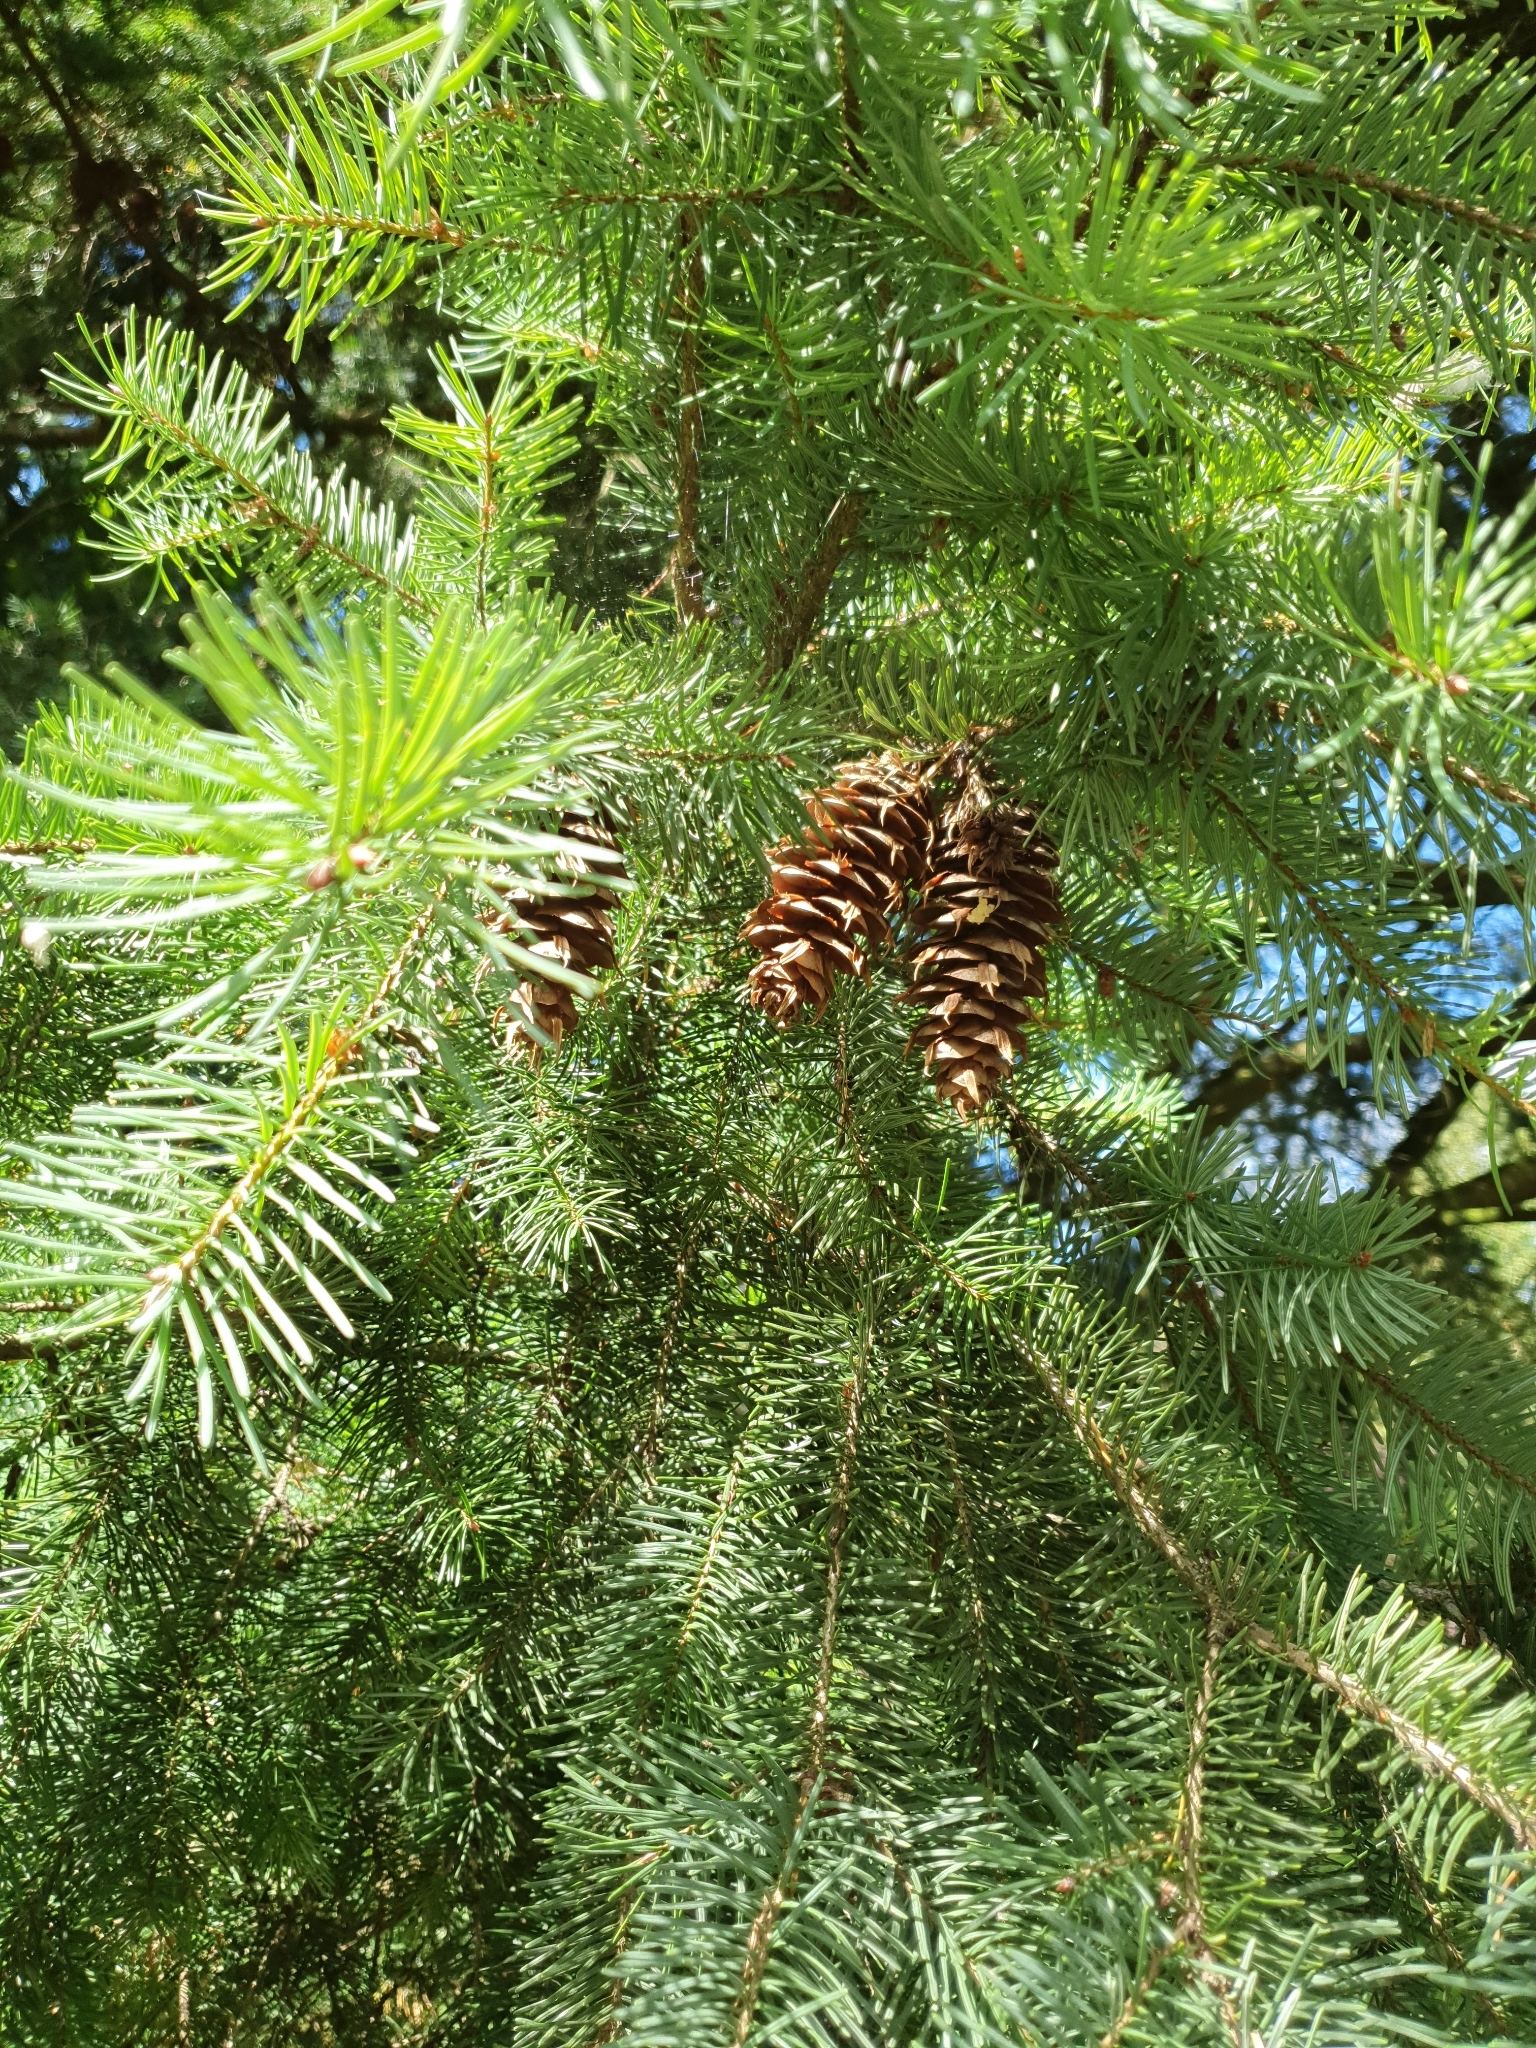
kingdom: Plantae
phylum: Tracheophyta
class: Pinopsida
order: Pinales
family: Pinaceae
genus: Pseudotsuga
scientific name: Pseudotsuga menziesii
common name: Douglas fir
